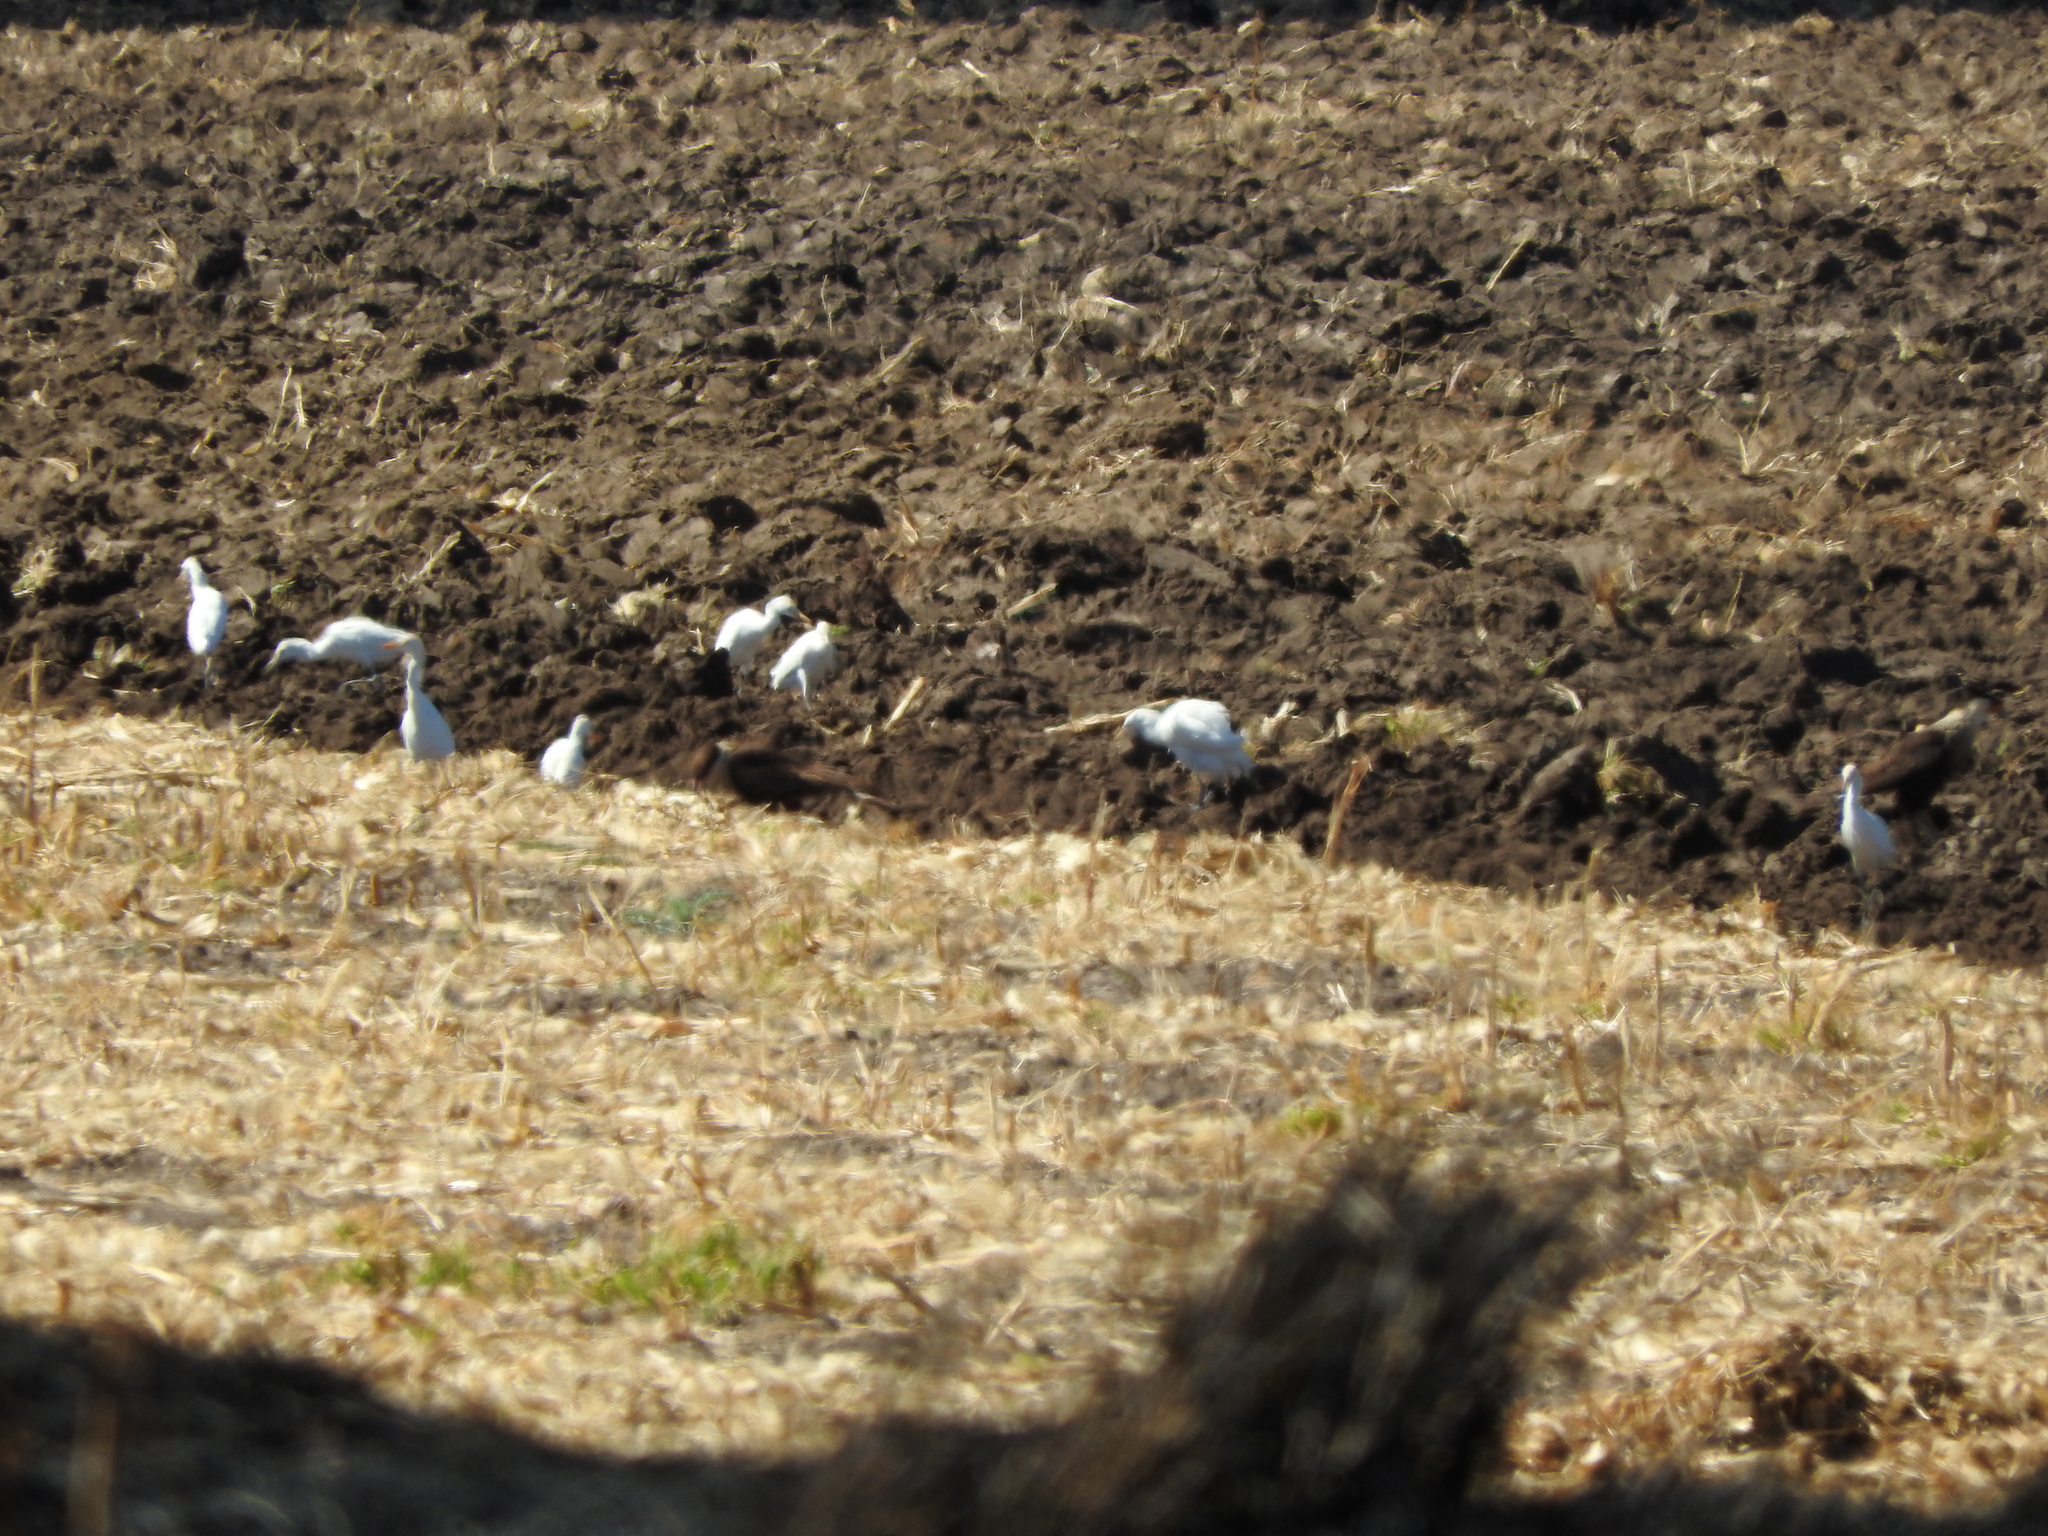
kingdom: Animalia
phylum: Chordata
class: Aves
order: Pelecaniformes
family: Ardeidae
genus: Bubulcus
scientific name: Bubulcus ibis
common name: Cattle egret
